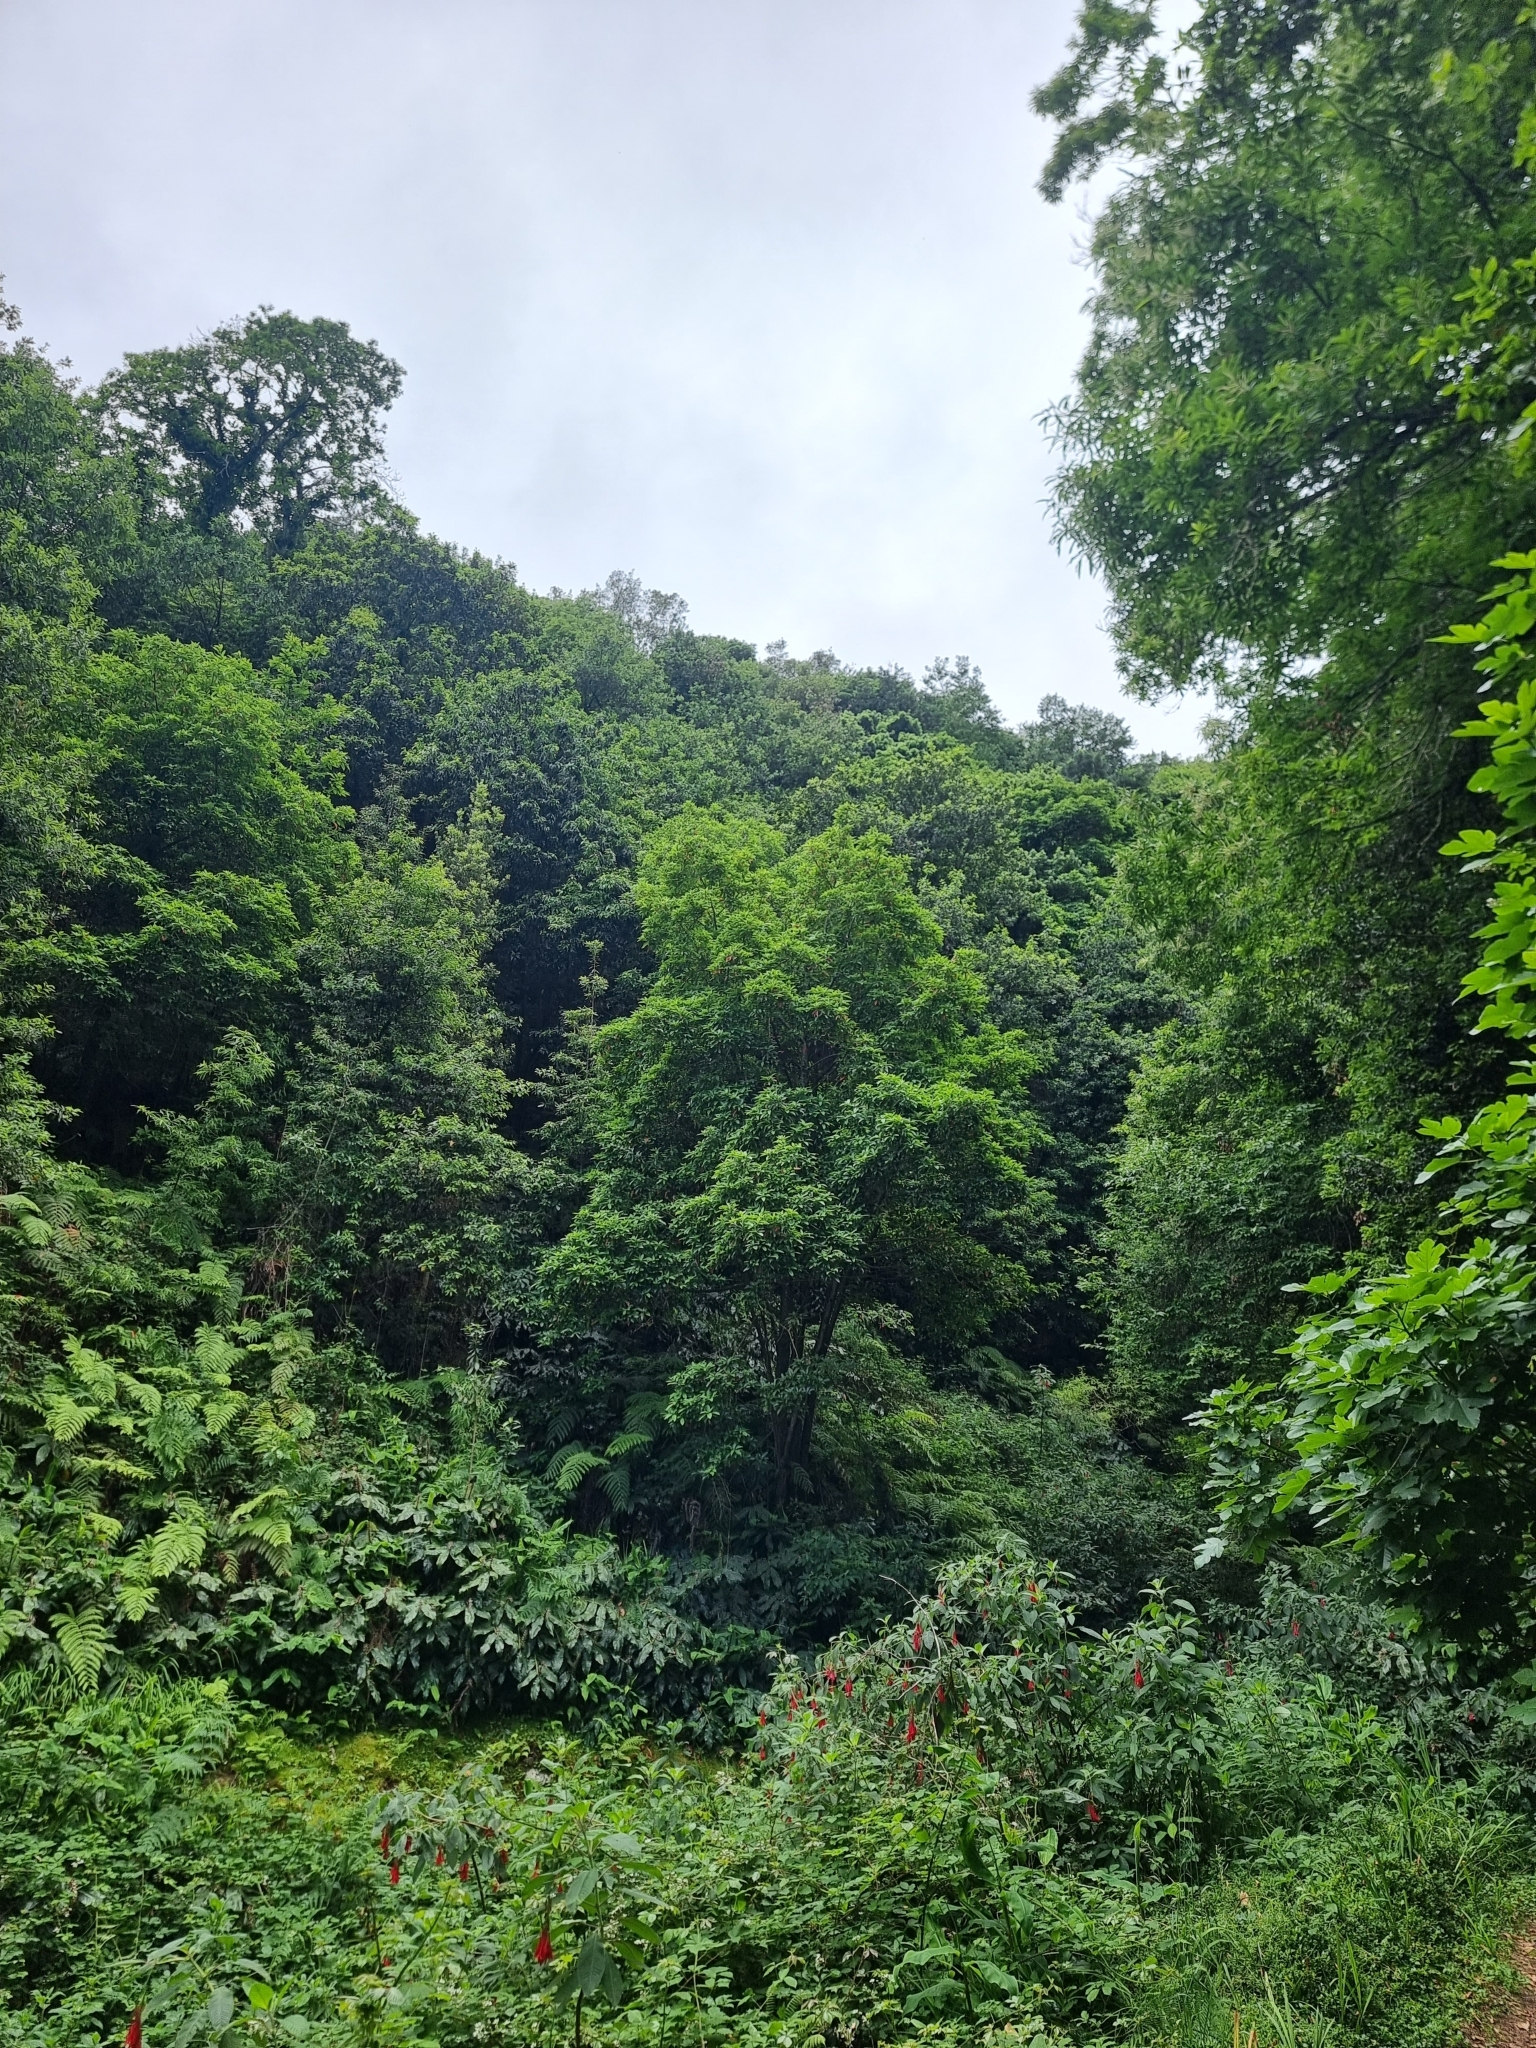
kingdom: Plantae
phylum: Tracheophyta
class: Magnoliopsida
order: Laurales
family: Lauraceae
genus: Persea
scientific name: Persea indica
